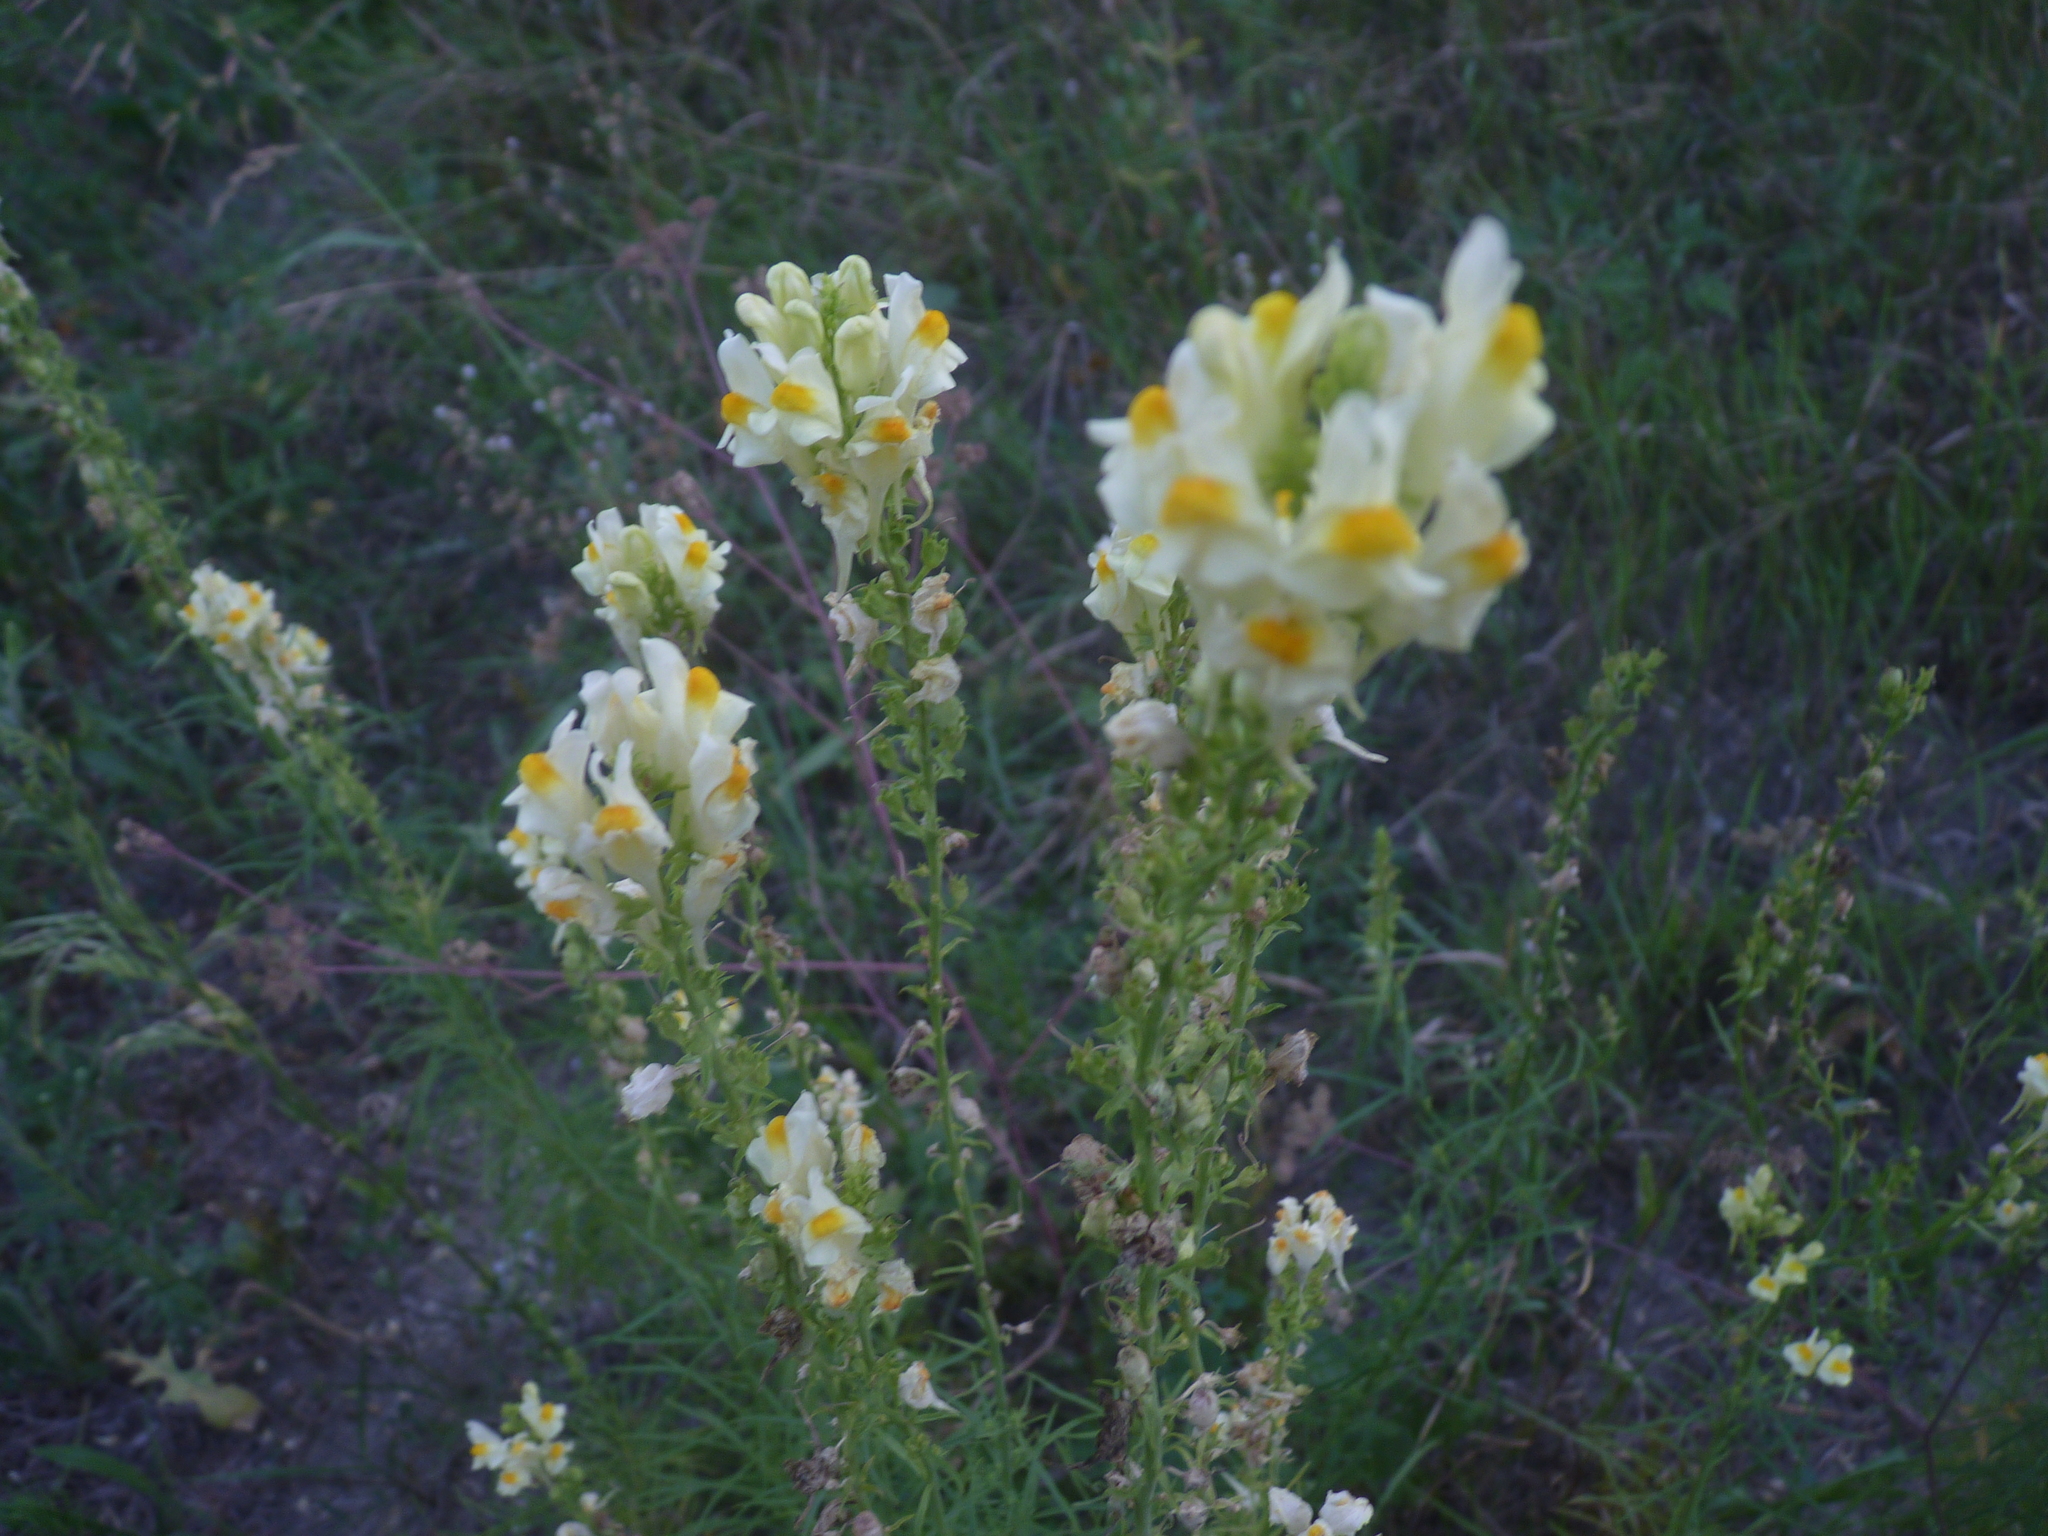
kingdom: Plantae
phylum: Tracheophyta
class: Magnoliopsida
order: Lamiales
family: Plantaginaceae
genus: Linaria
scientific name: Linaria vulgaris
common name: Butter and eggs
